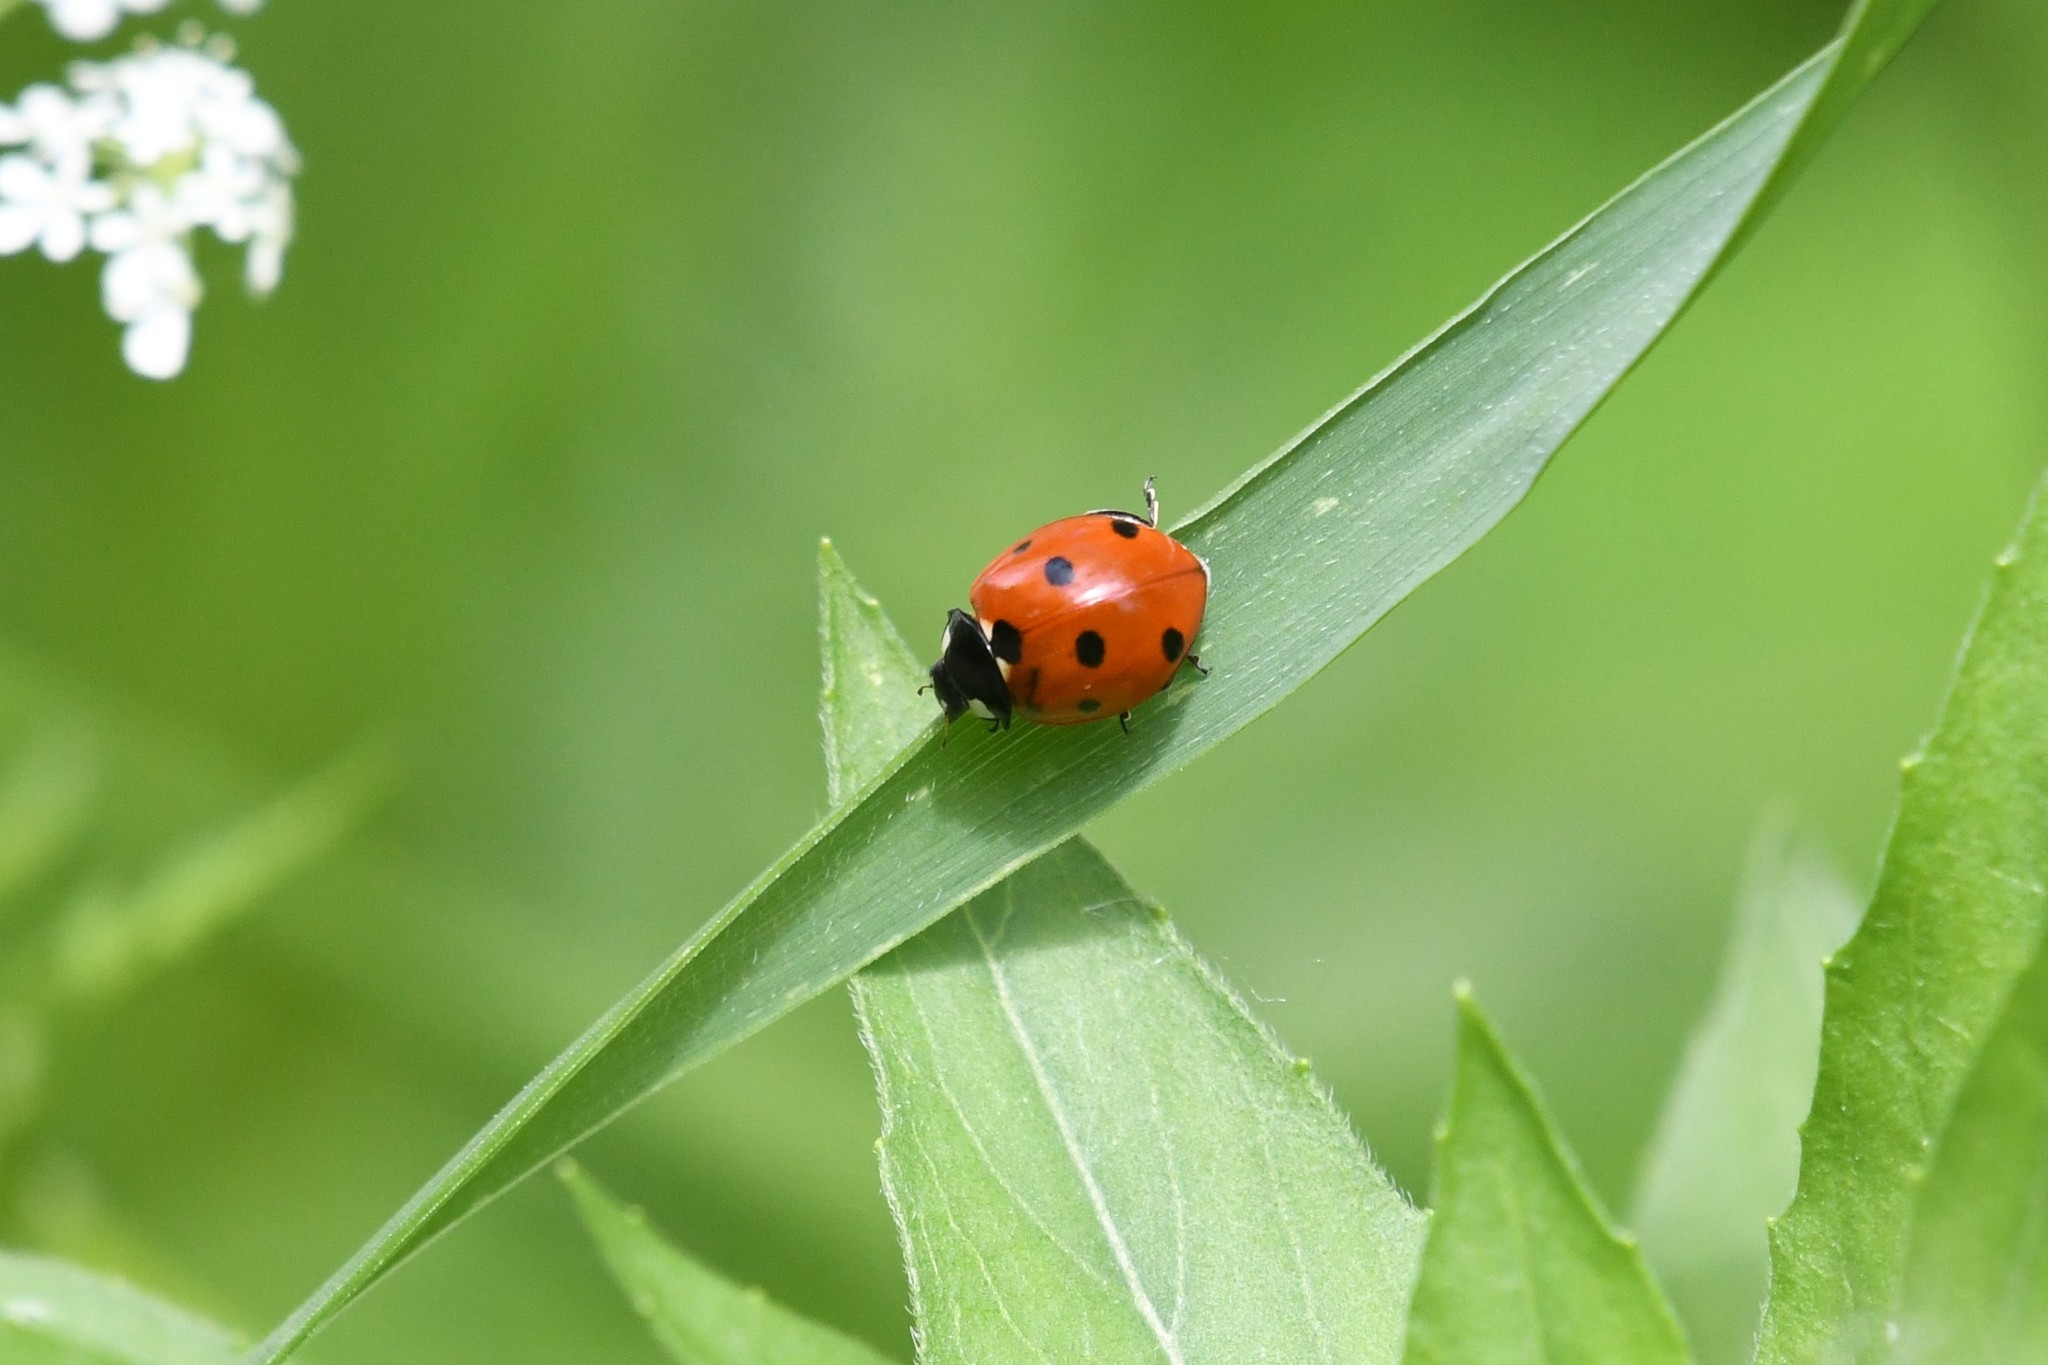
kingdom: Animalia
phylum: Arthropoda
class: Insecta
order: Coleoptera
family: Coccinellidae
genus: Coccinella
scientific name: Coccinella septempunctata
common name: Sevenspotted lady beetle
